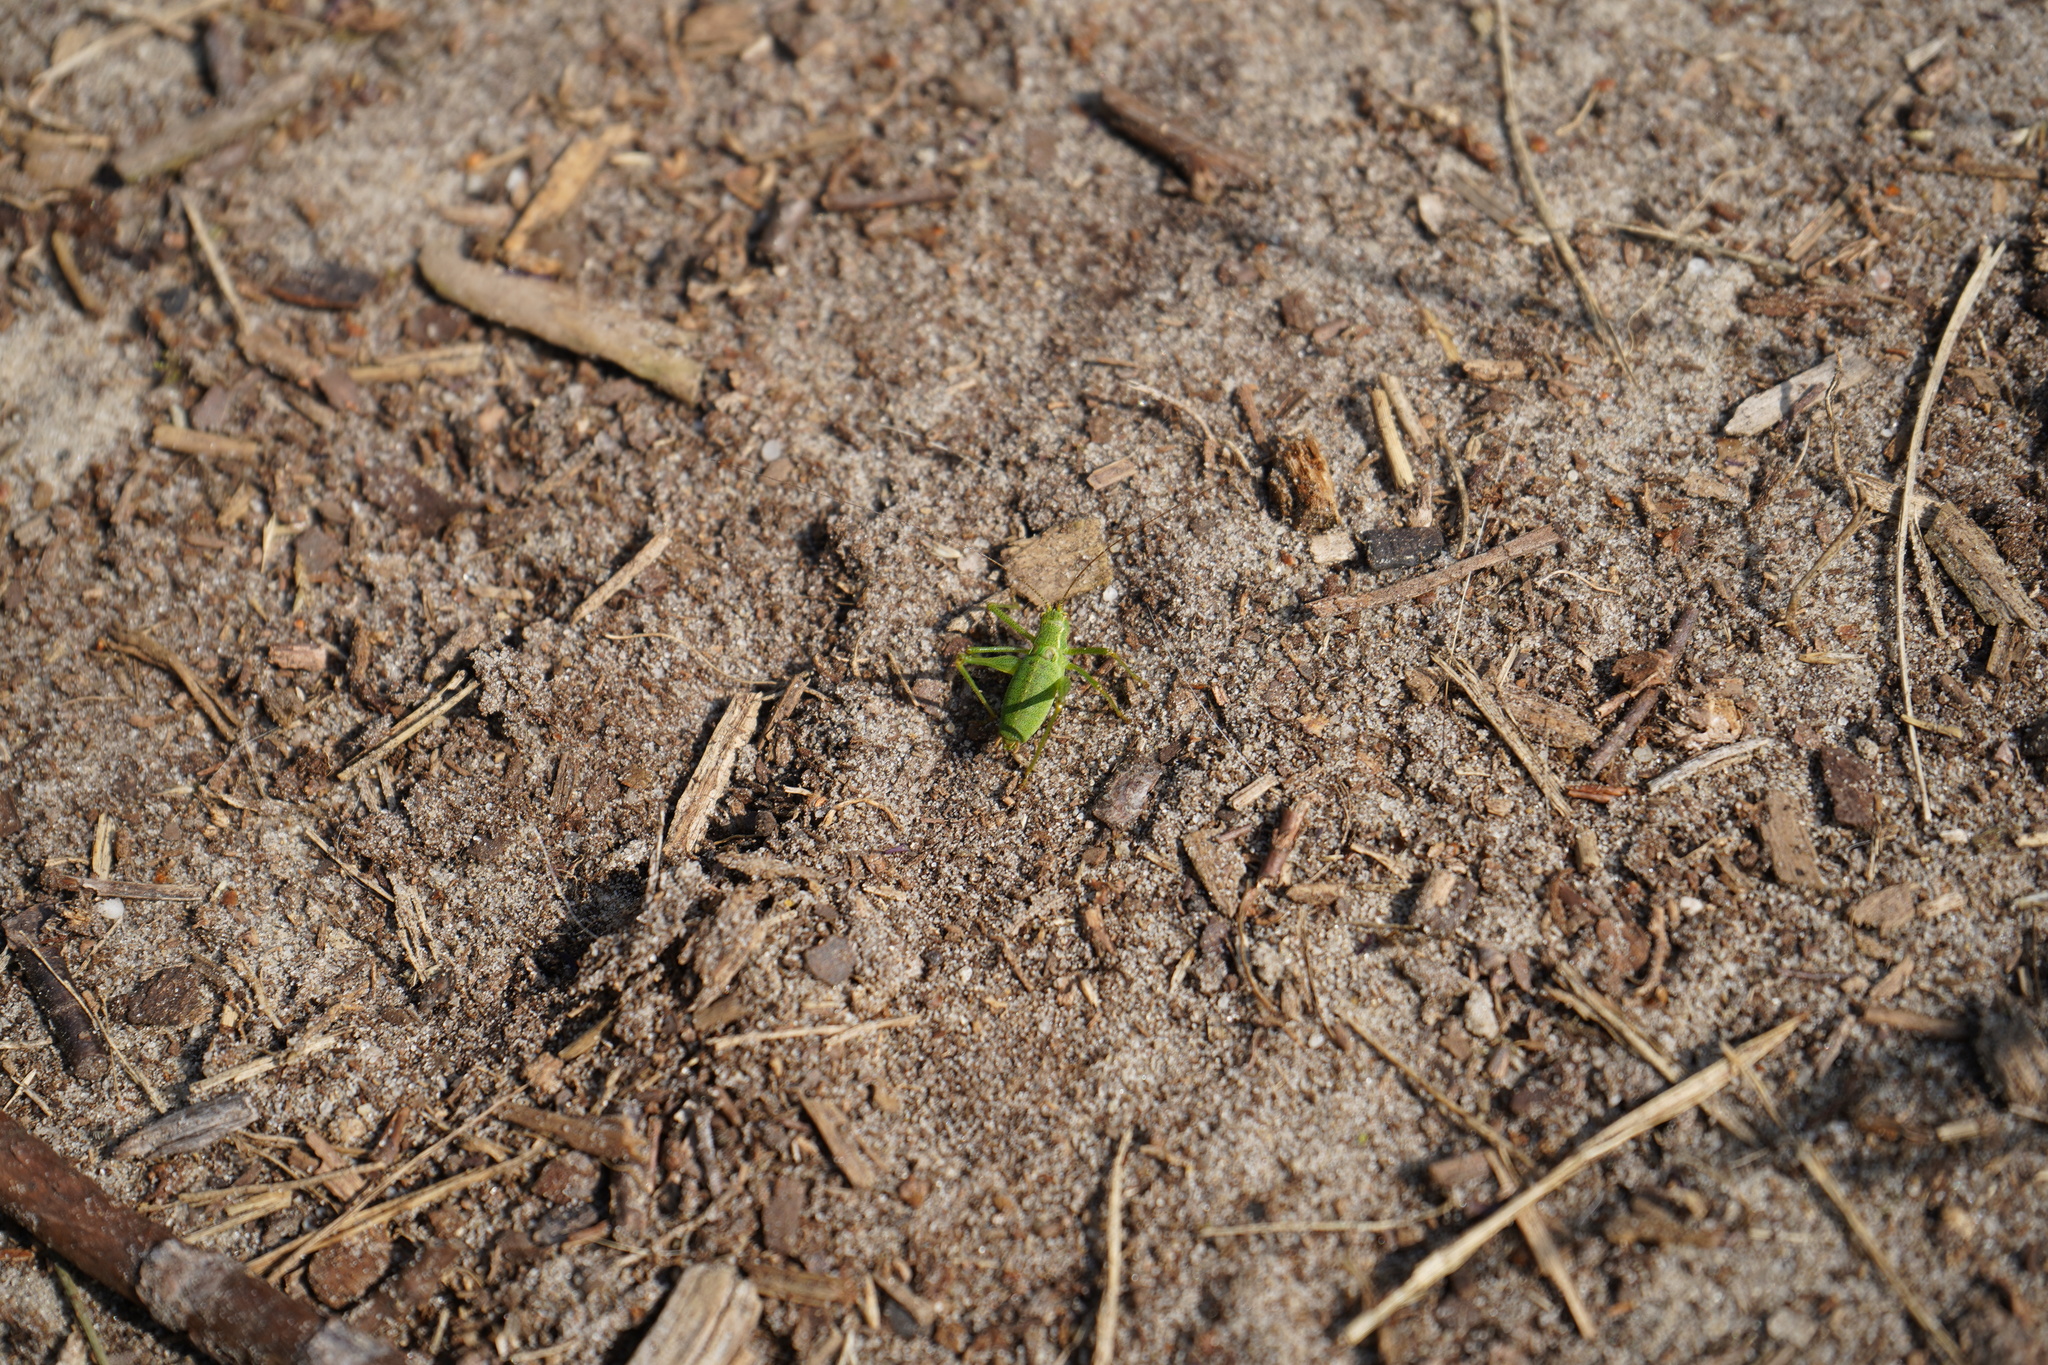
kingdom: Animalia
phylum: Arthropoda
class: Insecta
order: Orthoptera
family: Tettigoniidae
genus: Leptophyes
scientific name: Leptophyes punctatissima
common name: Speckled bush-cricket
